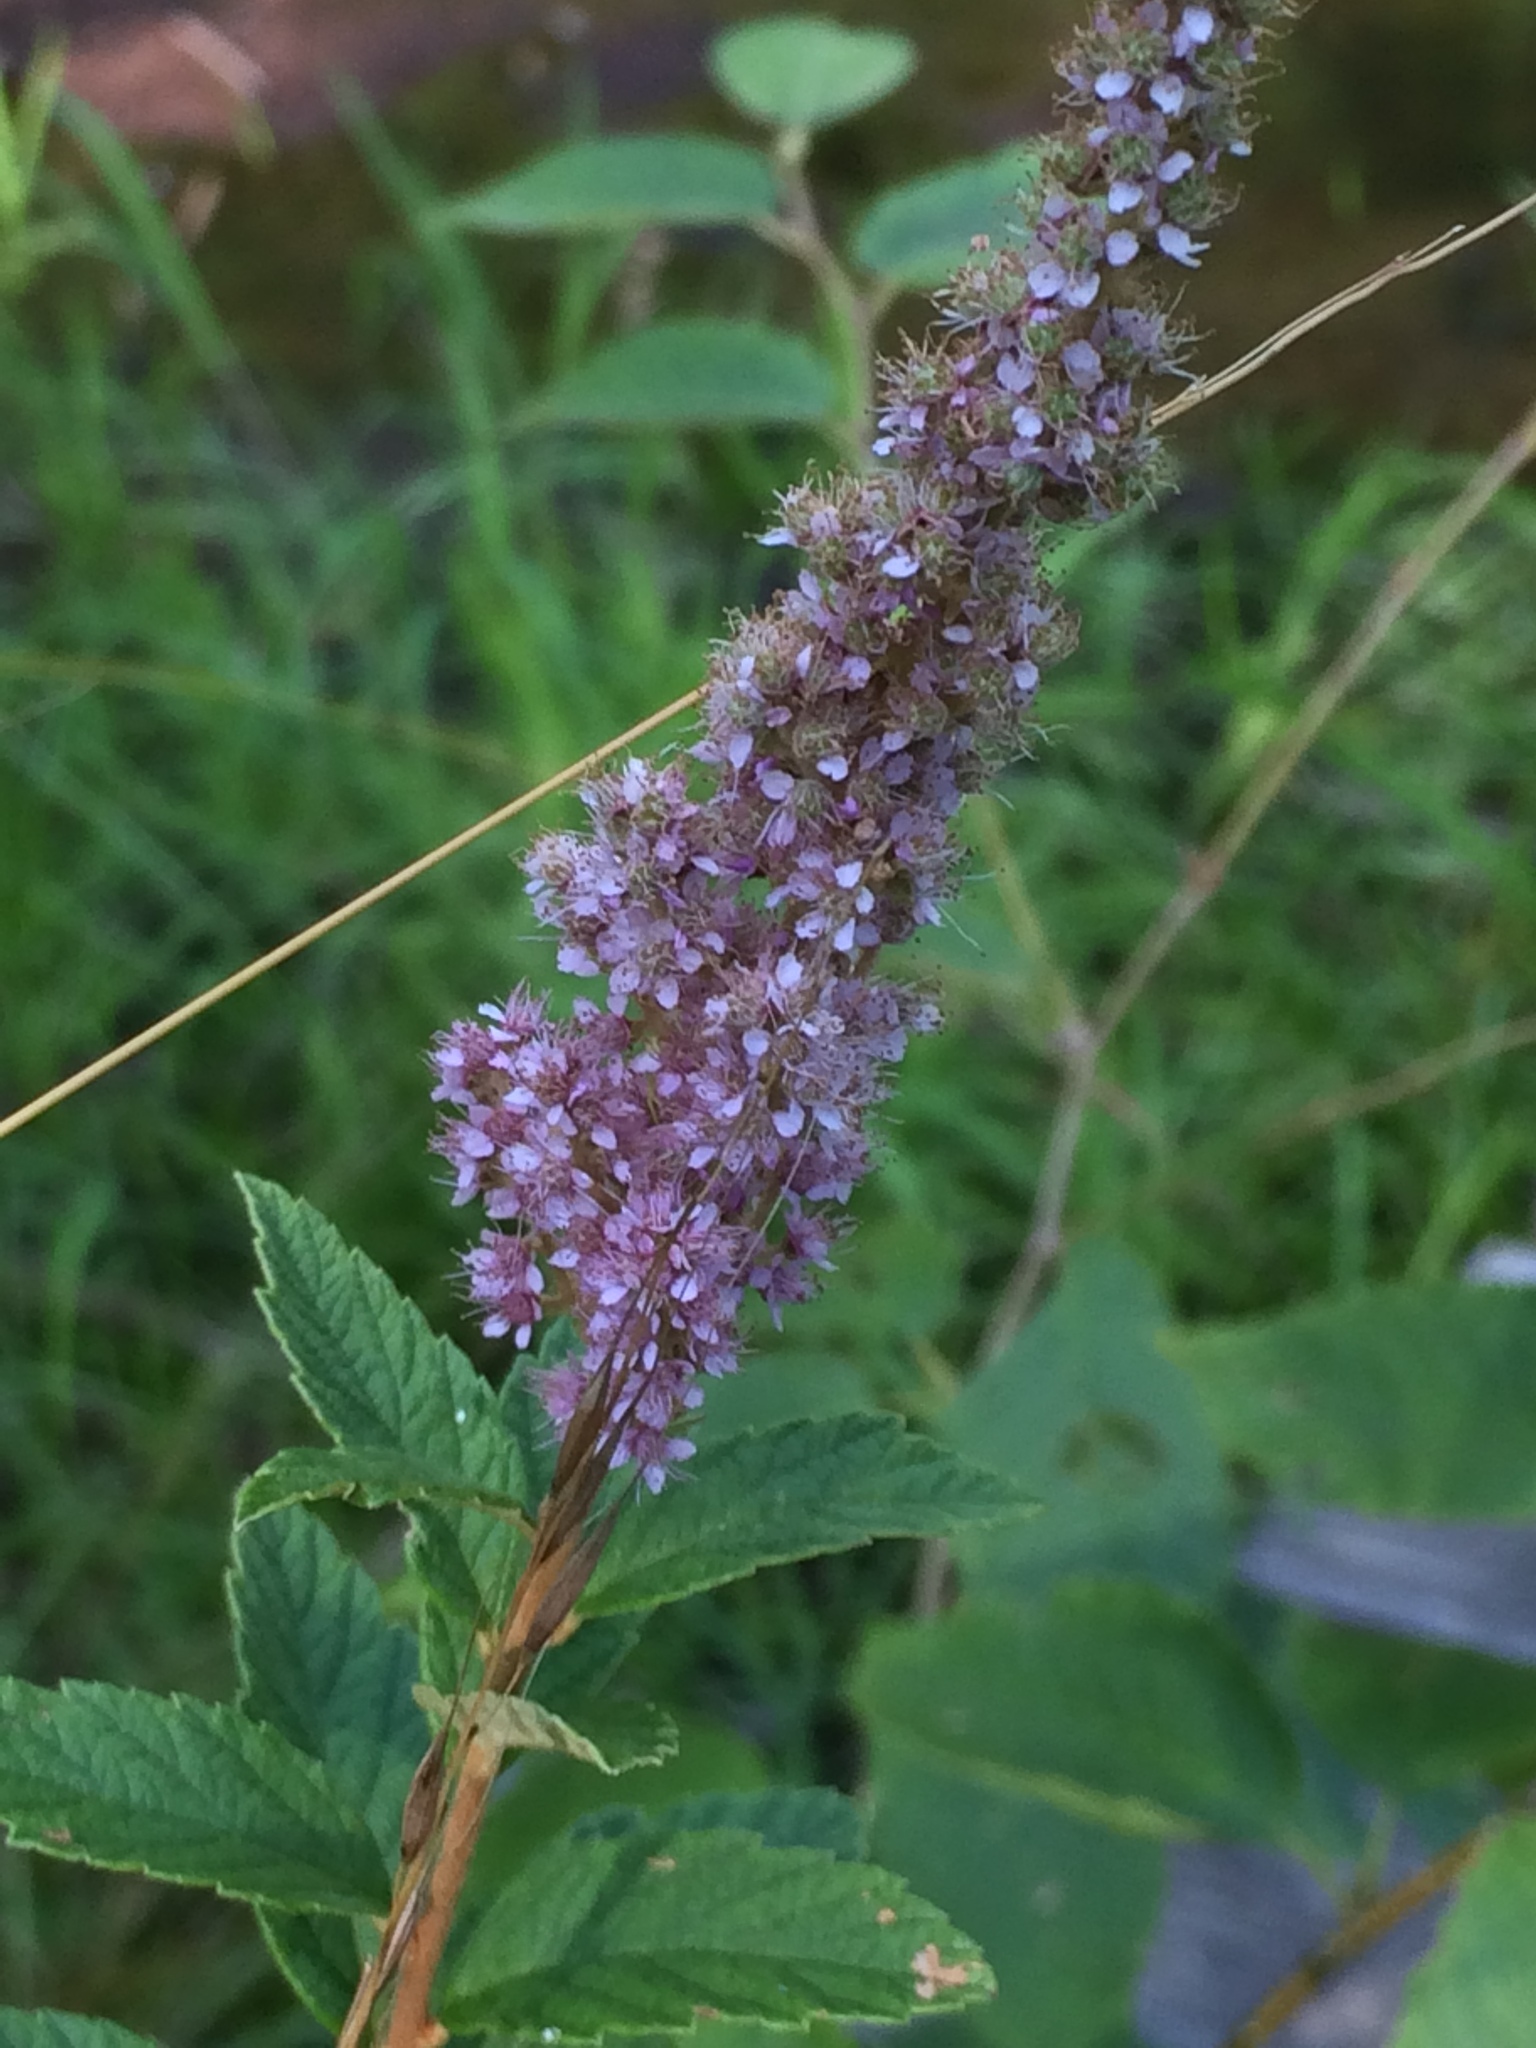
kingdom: Plantae
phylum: Tracheophyta
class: Magnoliopsida
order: Rosales
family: Rosaceae
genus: Spiraea
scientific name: Spiraea tomentosa
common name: Hardhack
